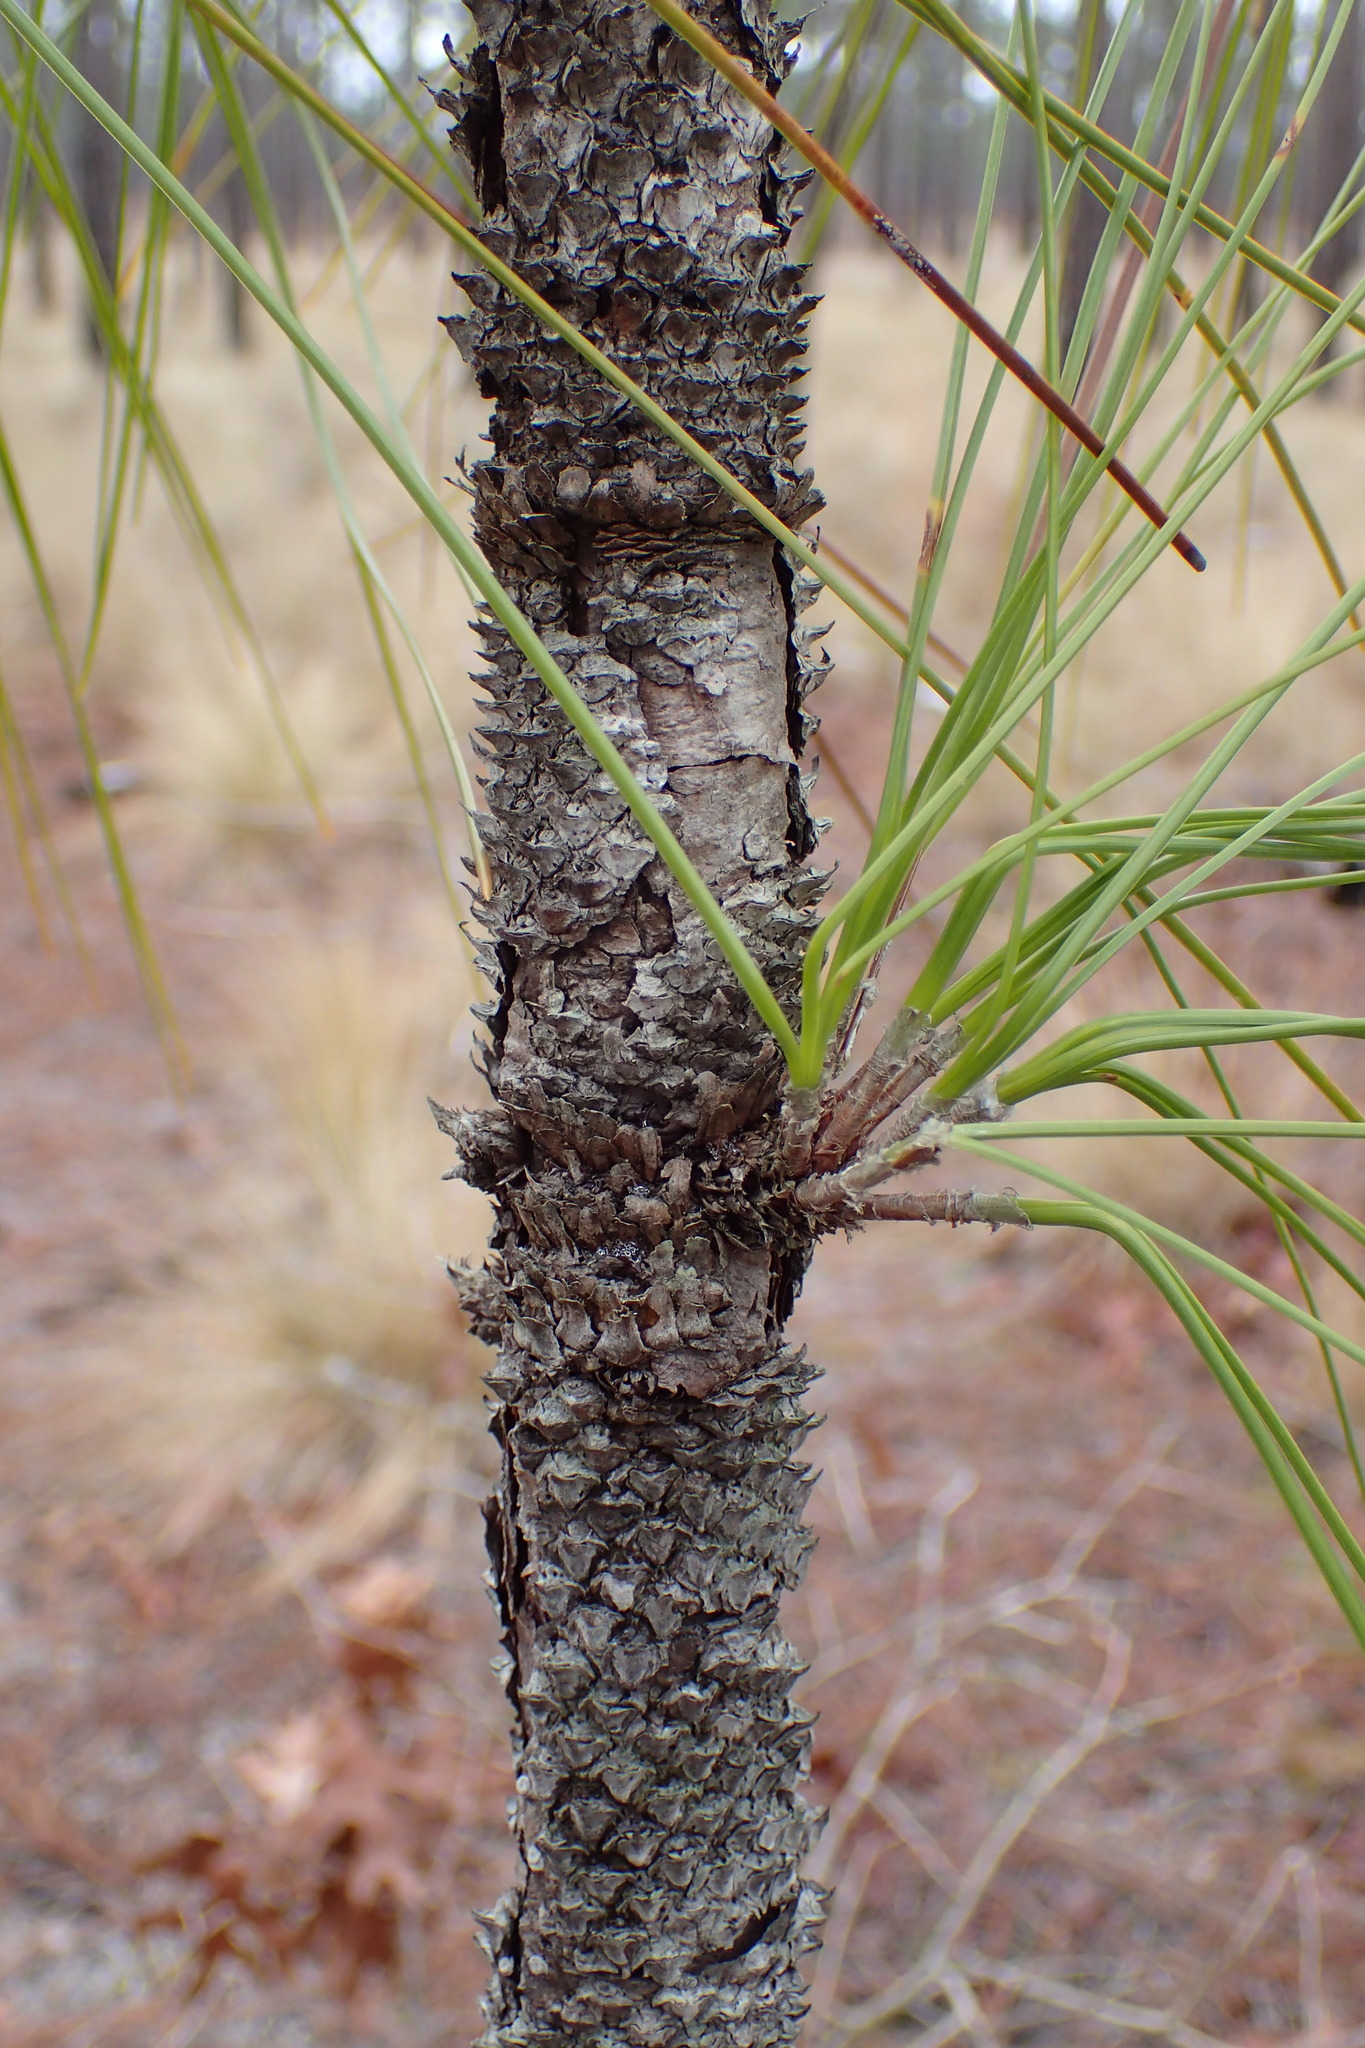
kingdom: Plantae
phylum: Tracheophyta
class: Pinopsida
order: Pinales
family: Pinaceae
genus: Pinus
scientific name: Pinus palustris
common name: Longleaf pine
